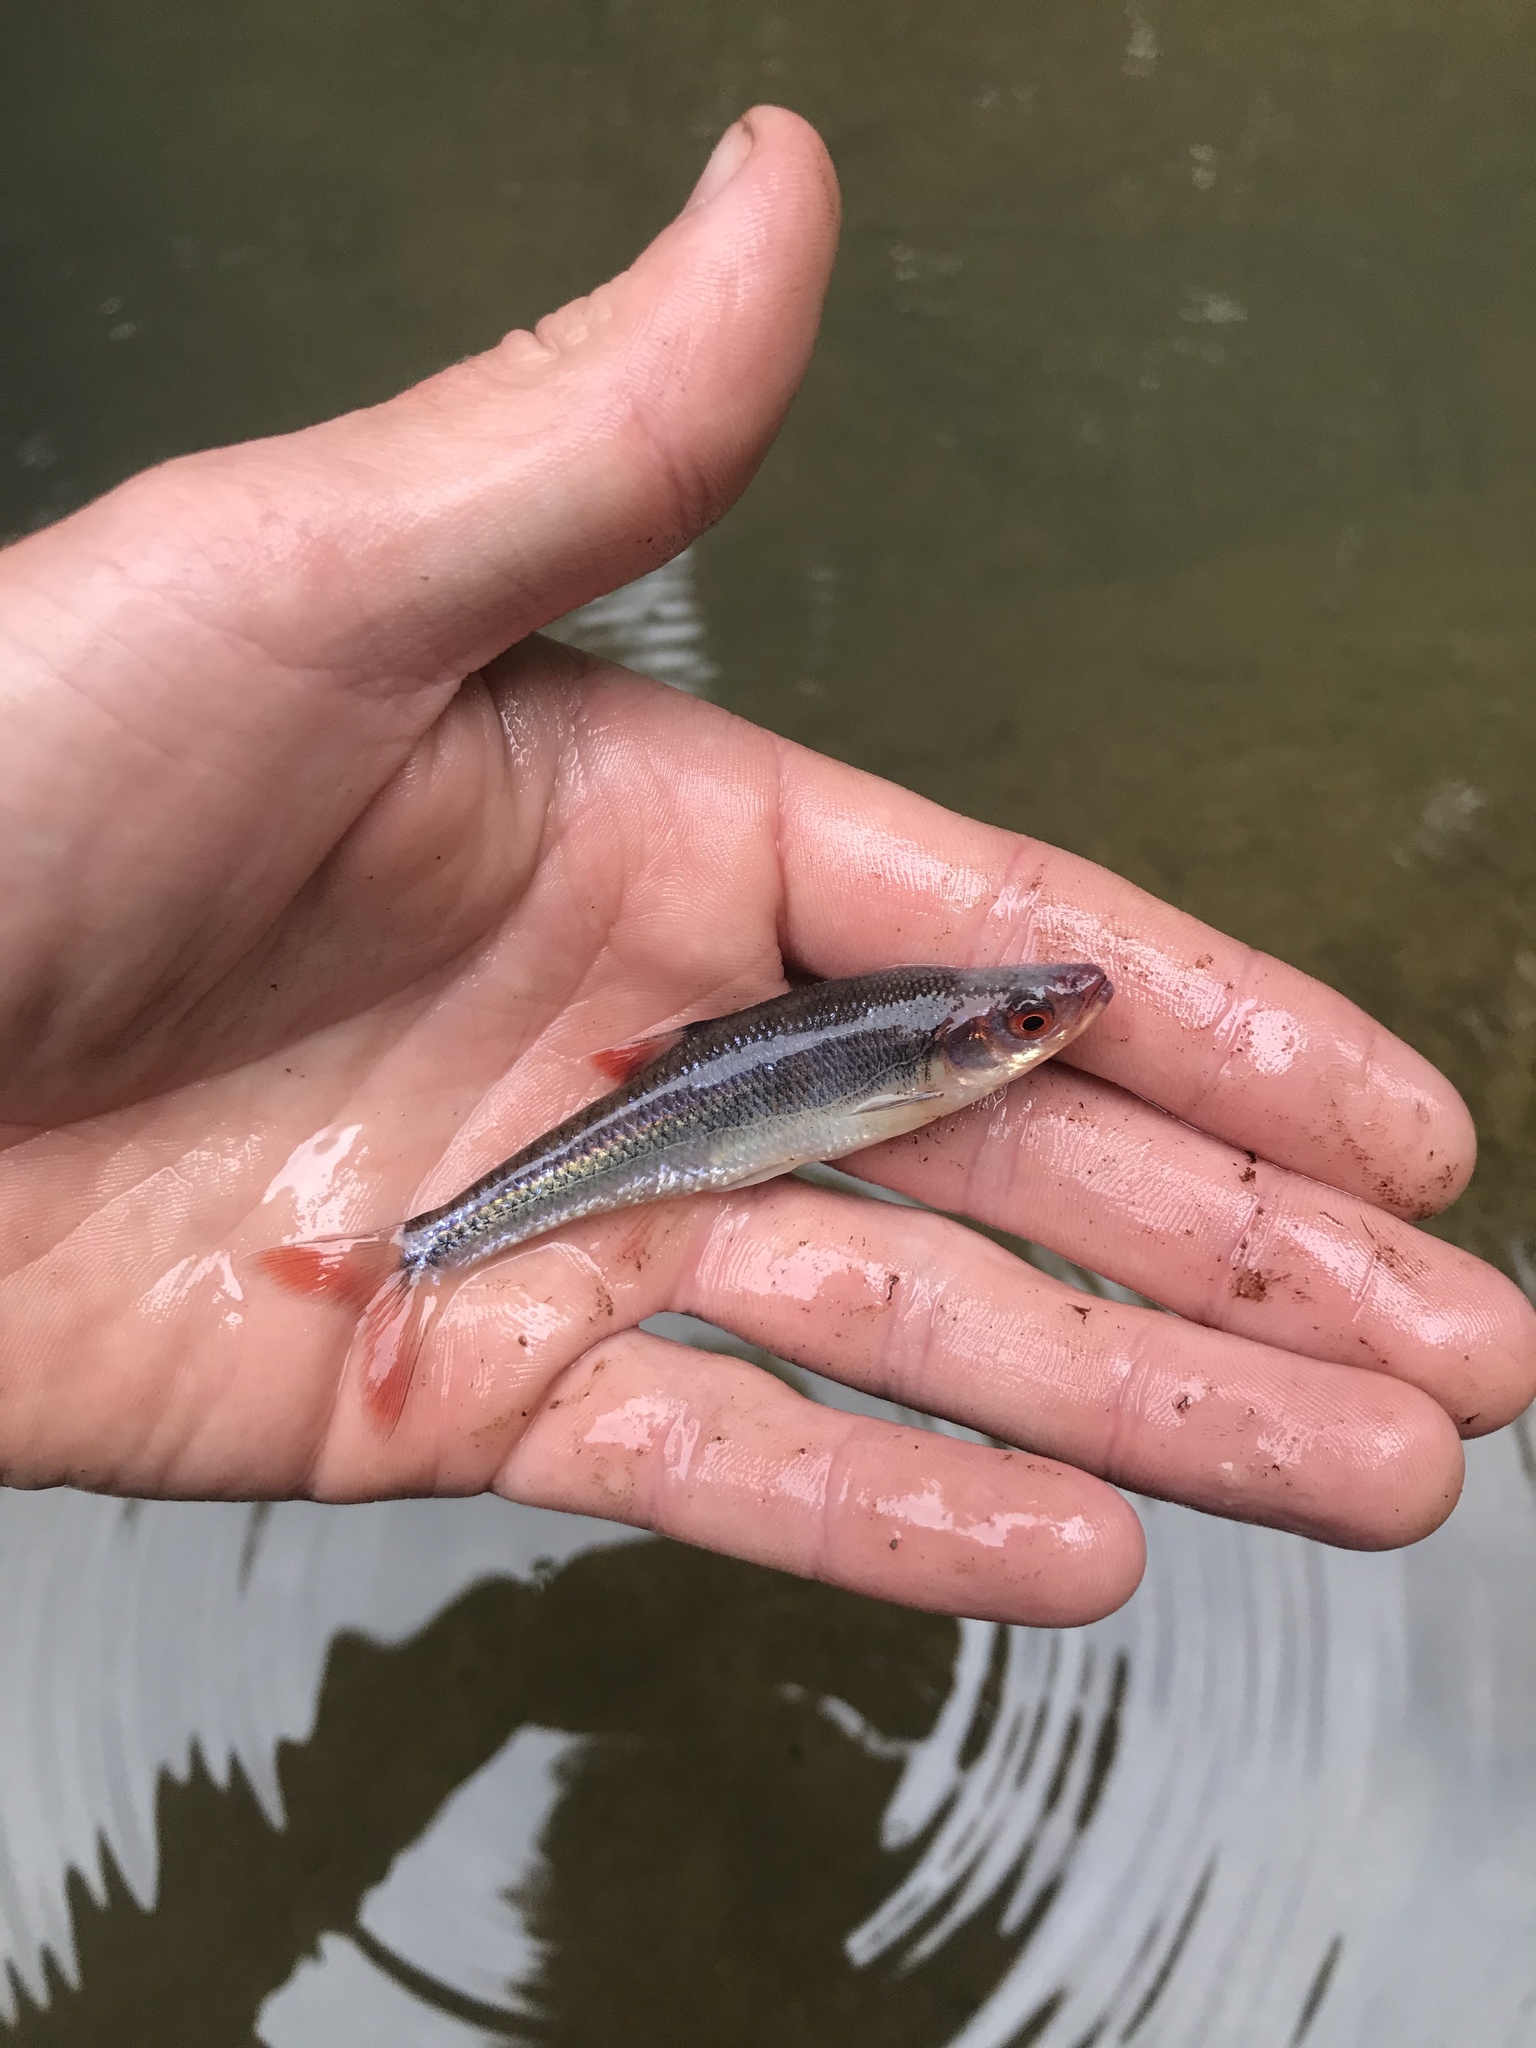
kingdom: Animalia
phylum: Chordata
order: Cypriniformes
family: Cyprinidae
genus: Lythrurus
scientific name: Lythrurus matutinus
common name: Pinewoods shiner
